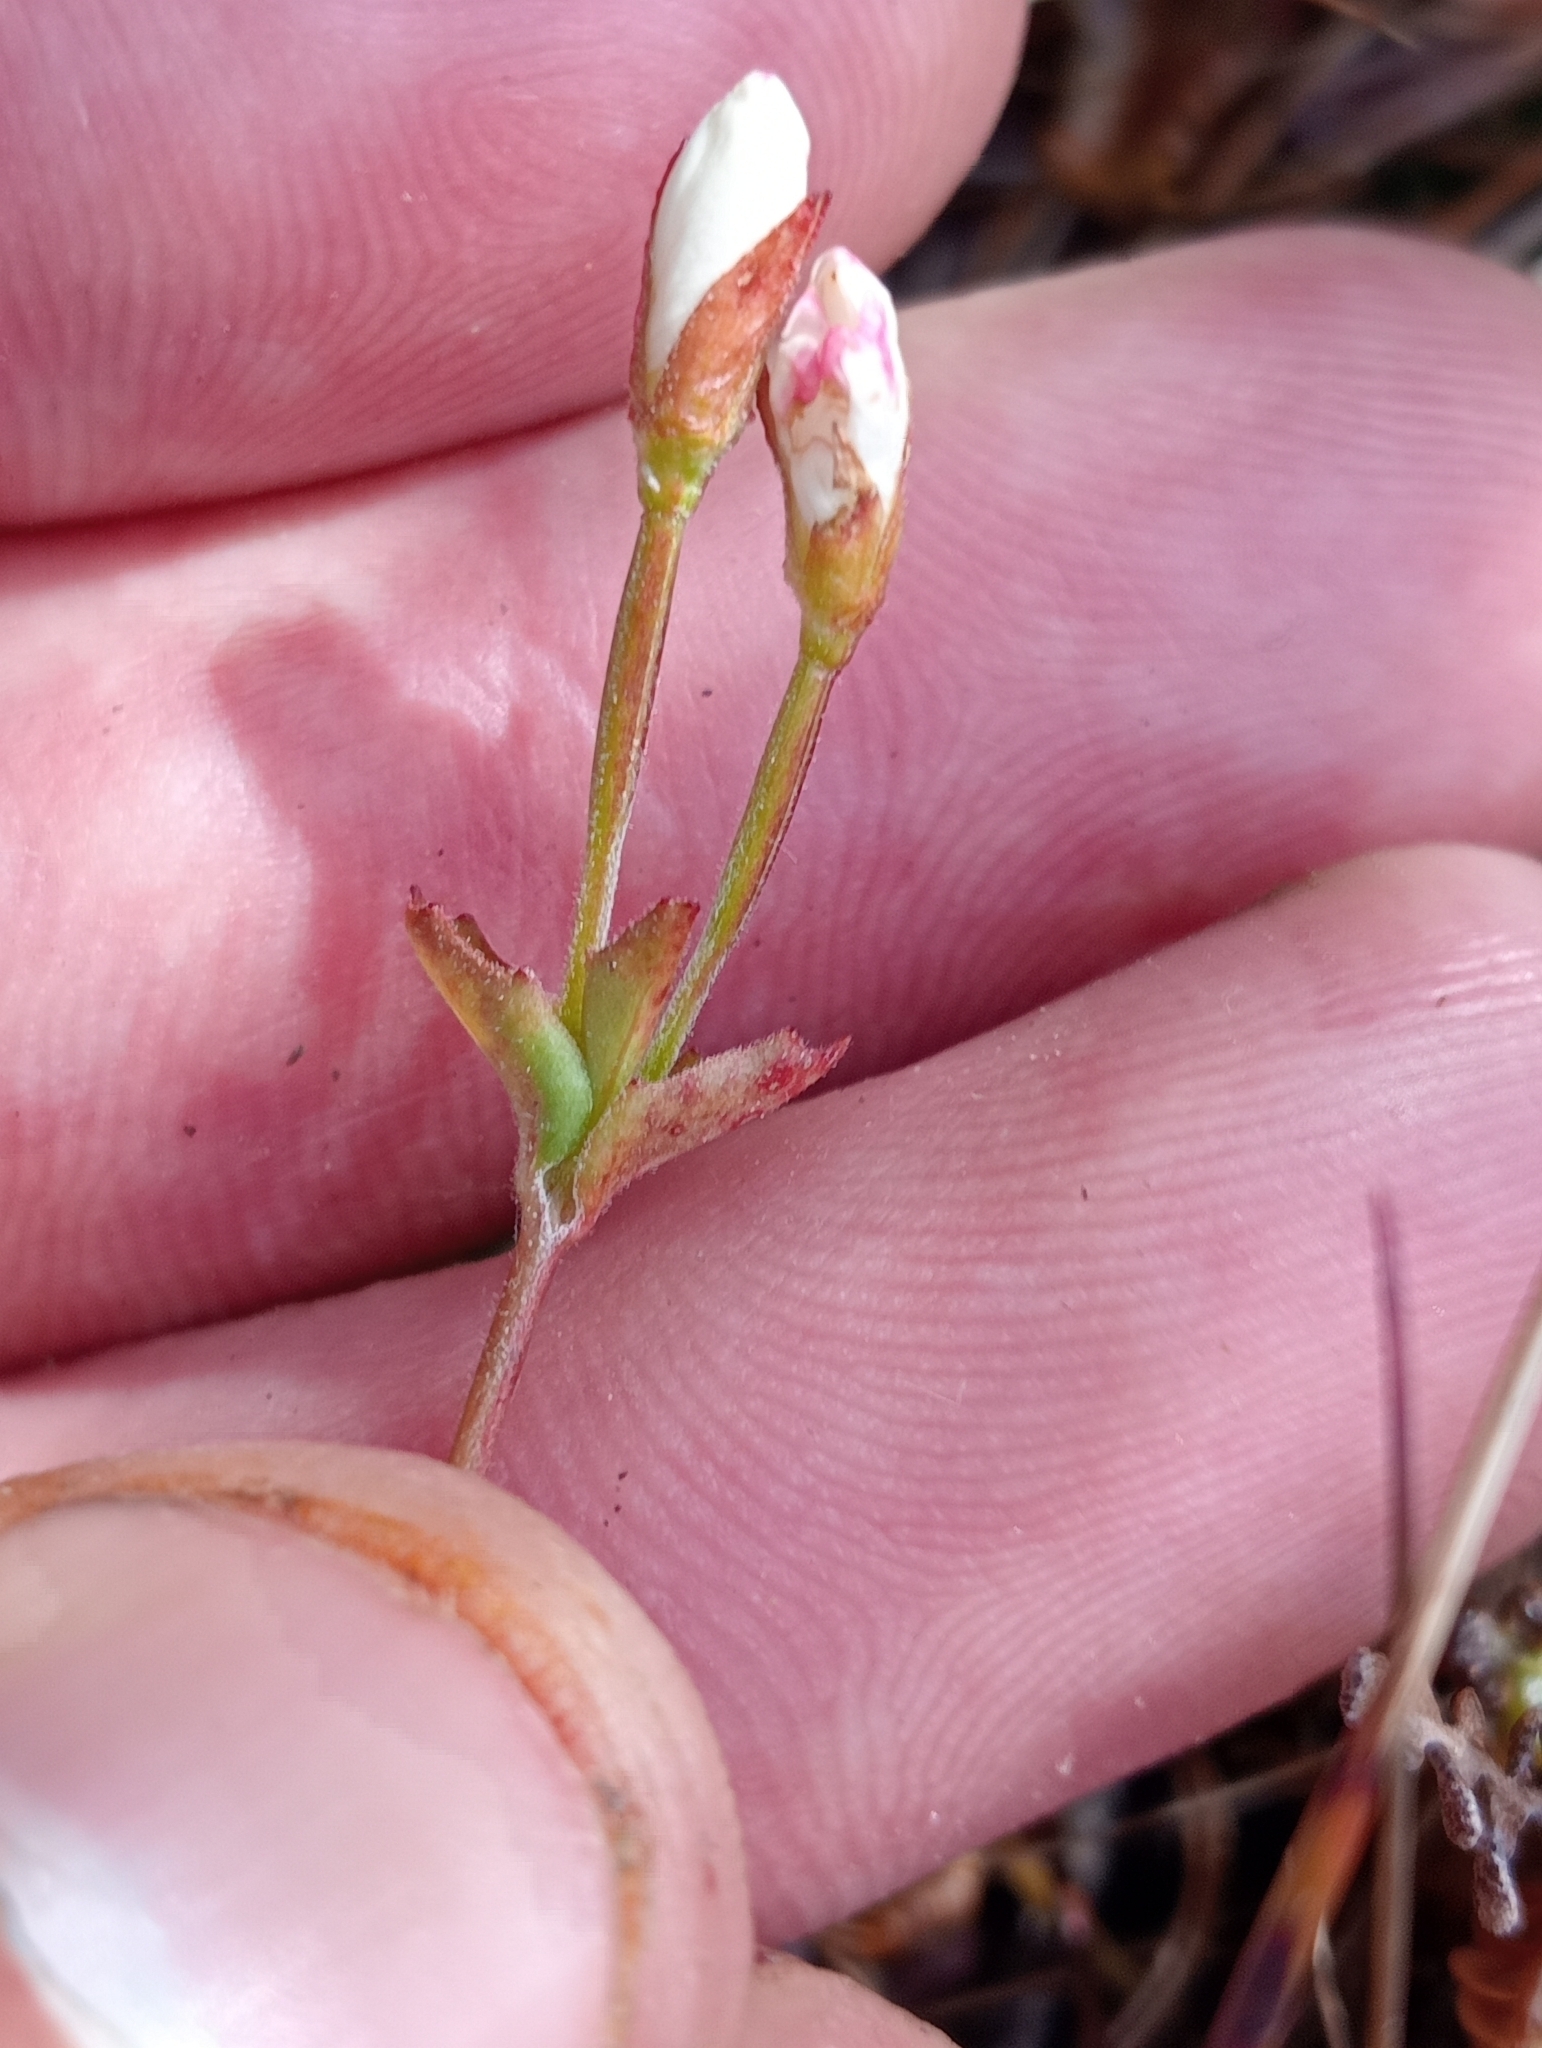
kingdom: Plantae
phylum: Tracheophyta
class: Magnoliopsida
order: Myrtales
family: Onagraceae
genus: Epilobium
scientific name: Epilobium chlorifolium
